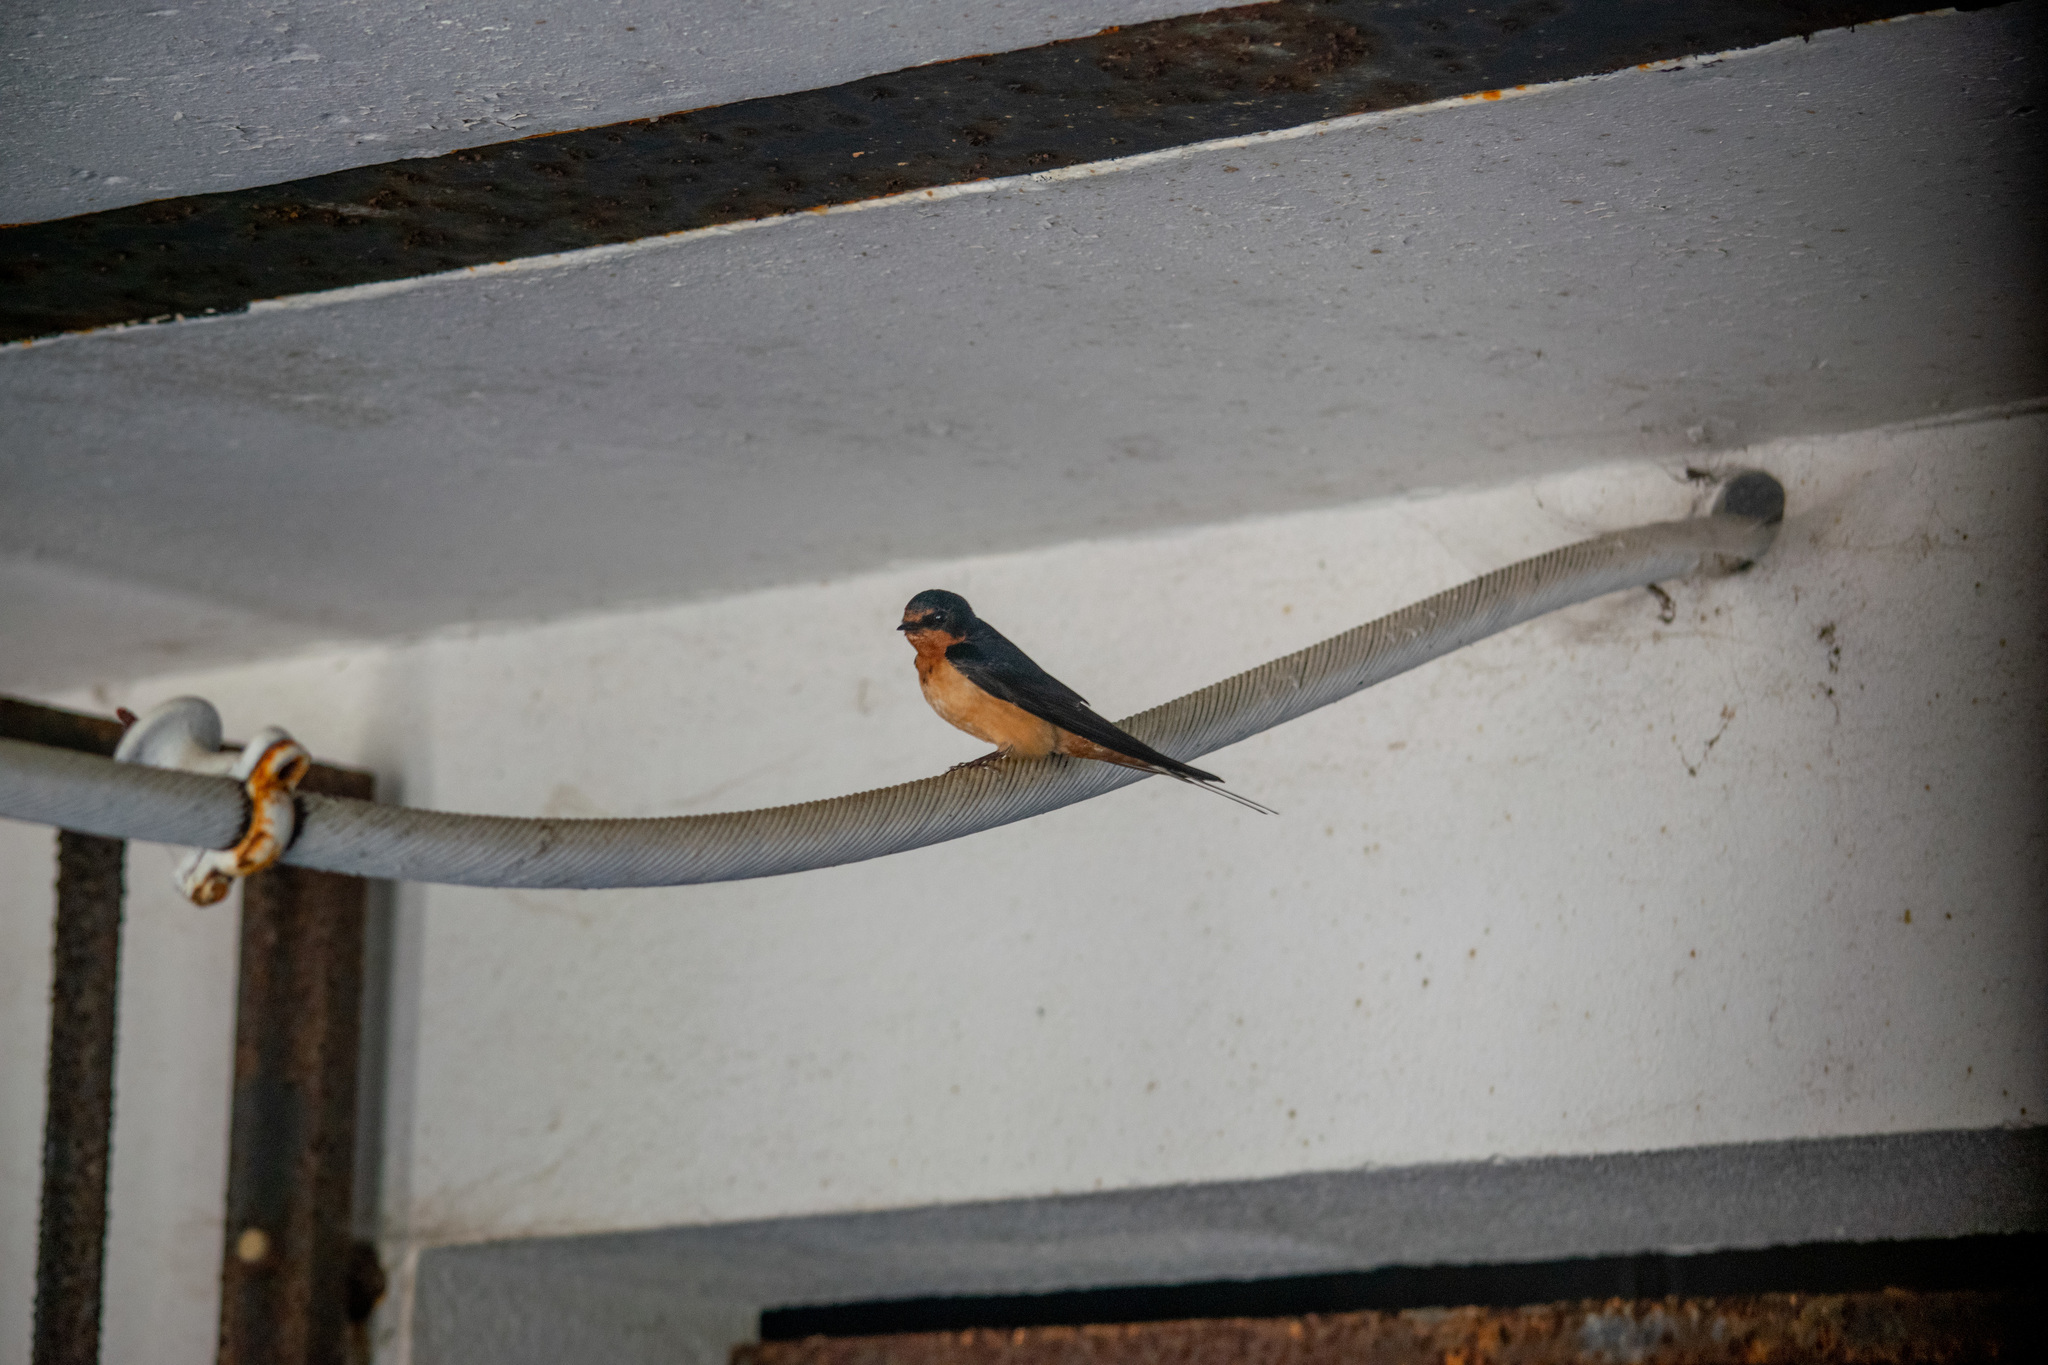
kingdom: Animalia
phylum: Chordata
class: Aves
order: Passeriformes
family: Hirundinidae
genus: Hirundo
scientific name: Hirundo rustica
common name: Barn swallow
